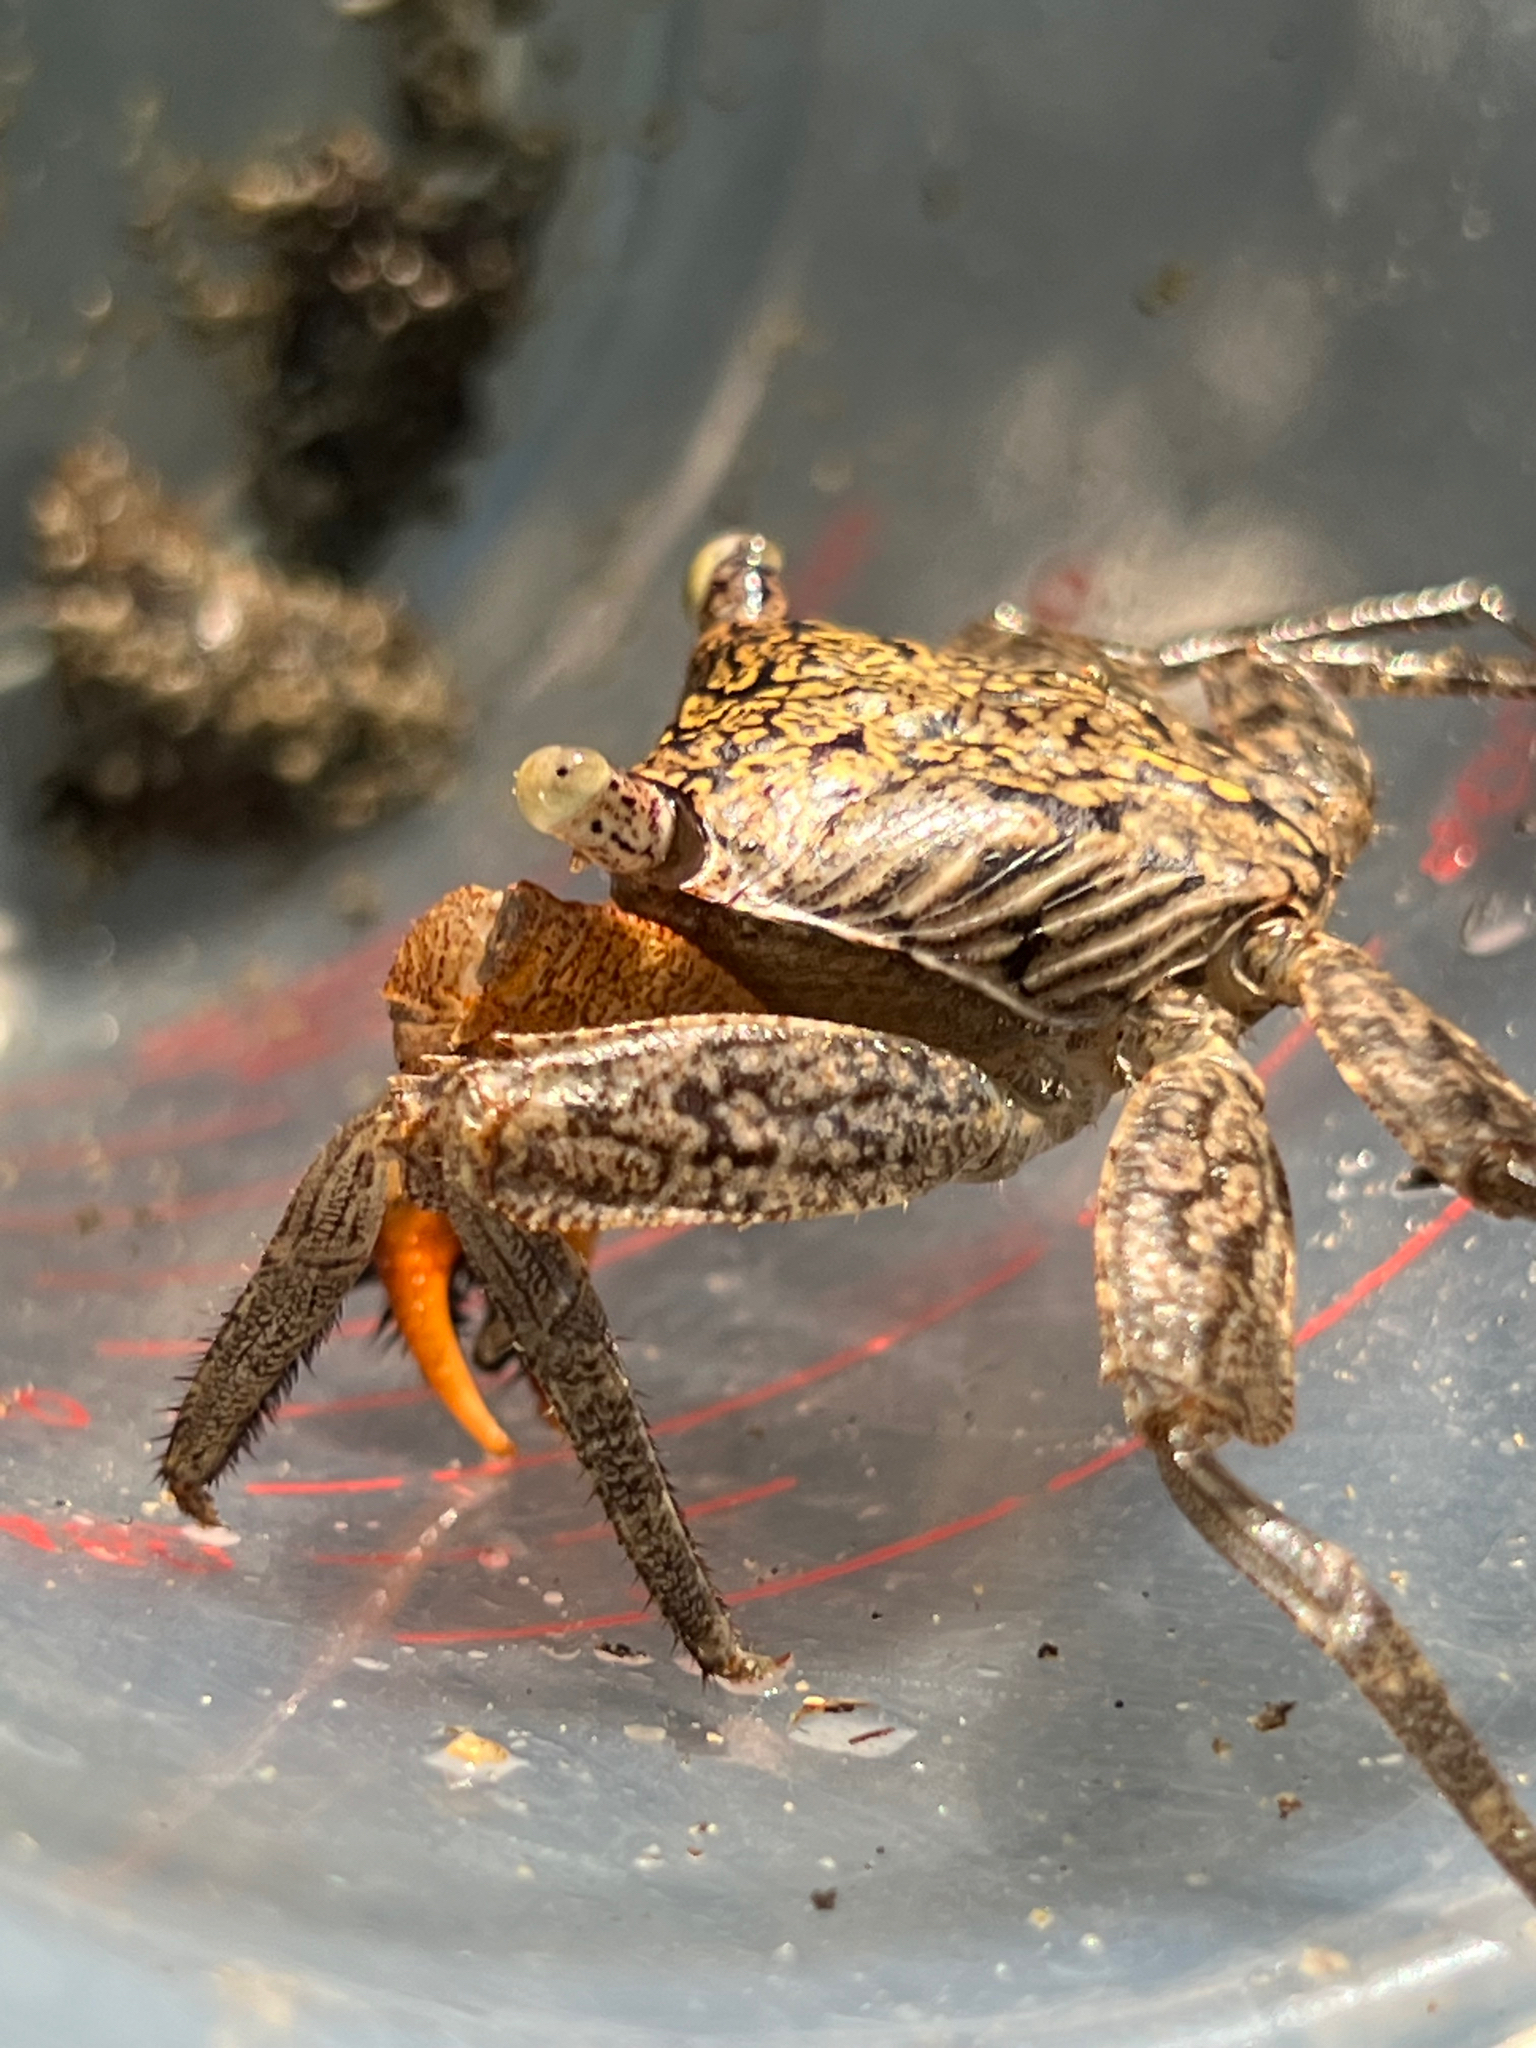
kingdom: Animalia
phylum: Arthropoda
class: Malacostraca
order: Decapoda
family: Sesarmidae
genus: Aratus
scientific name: Aratus pacificus
